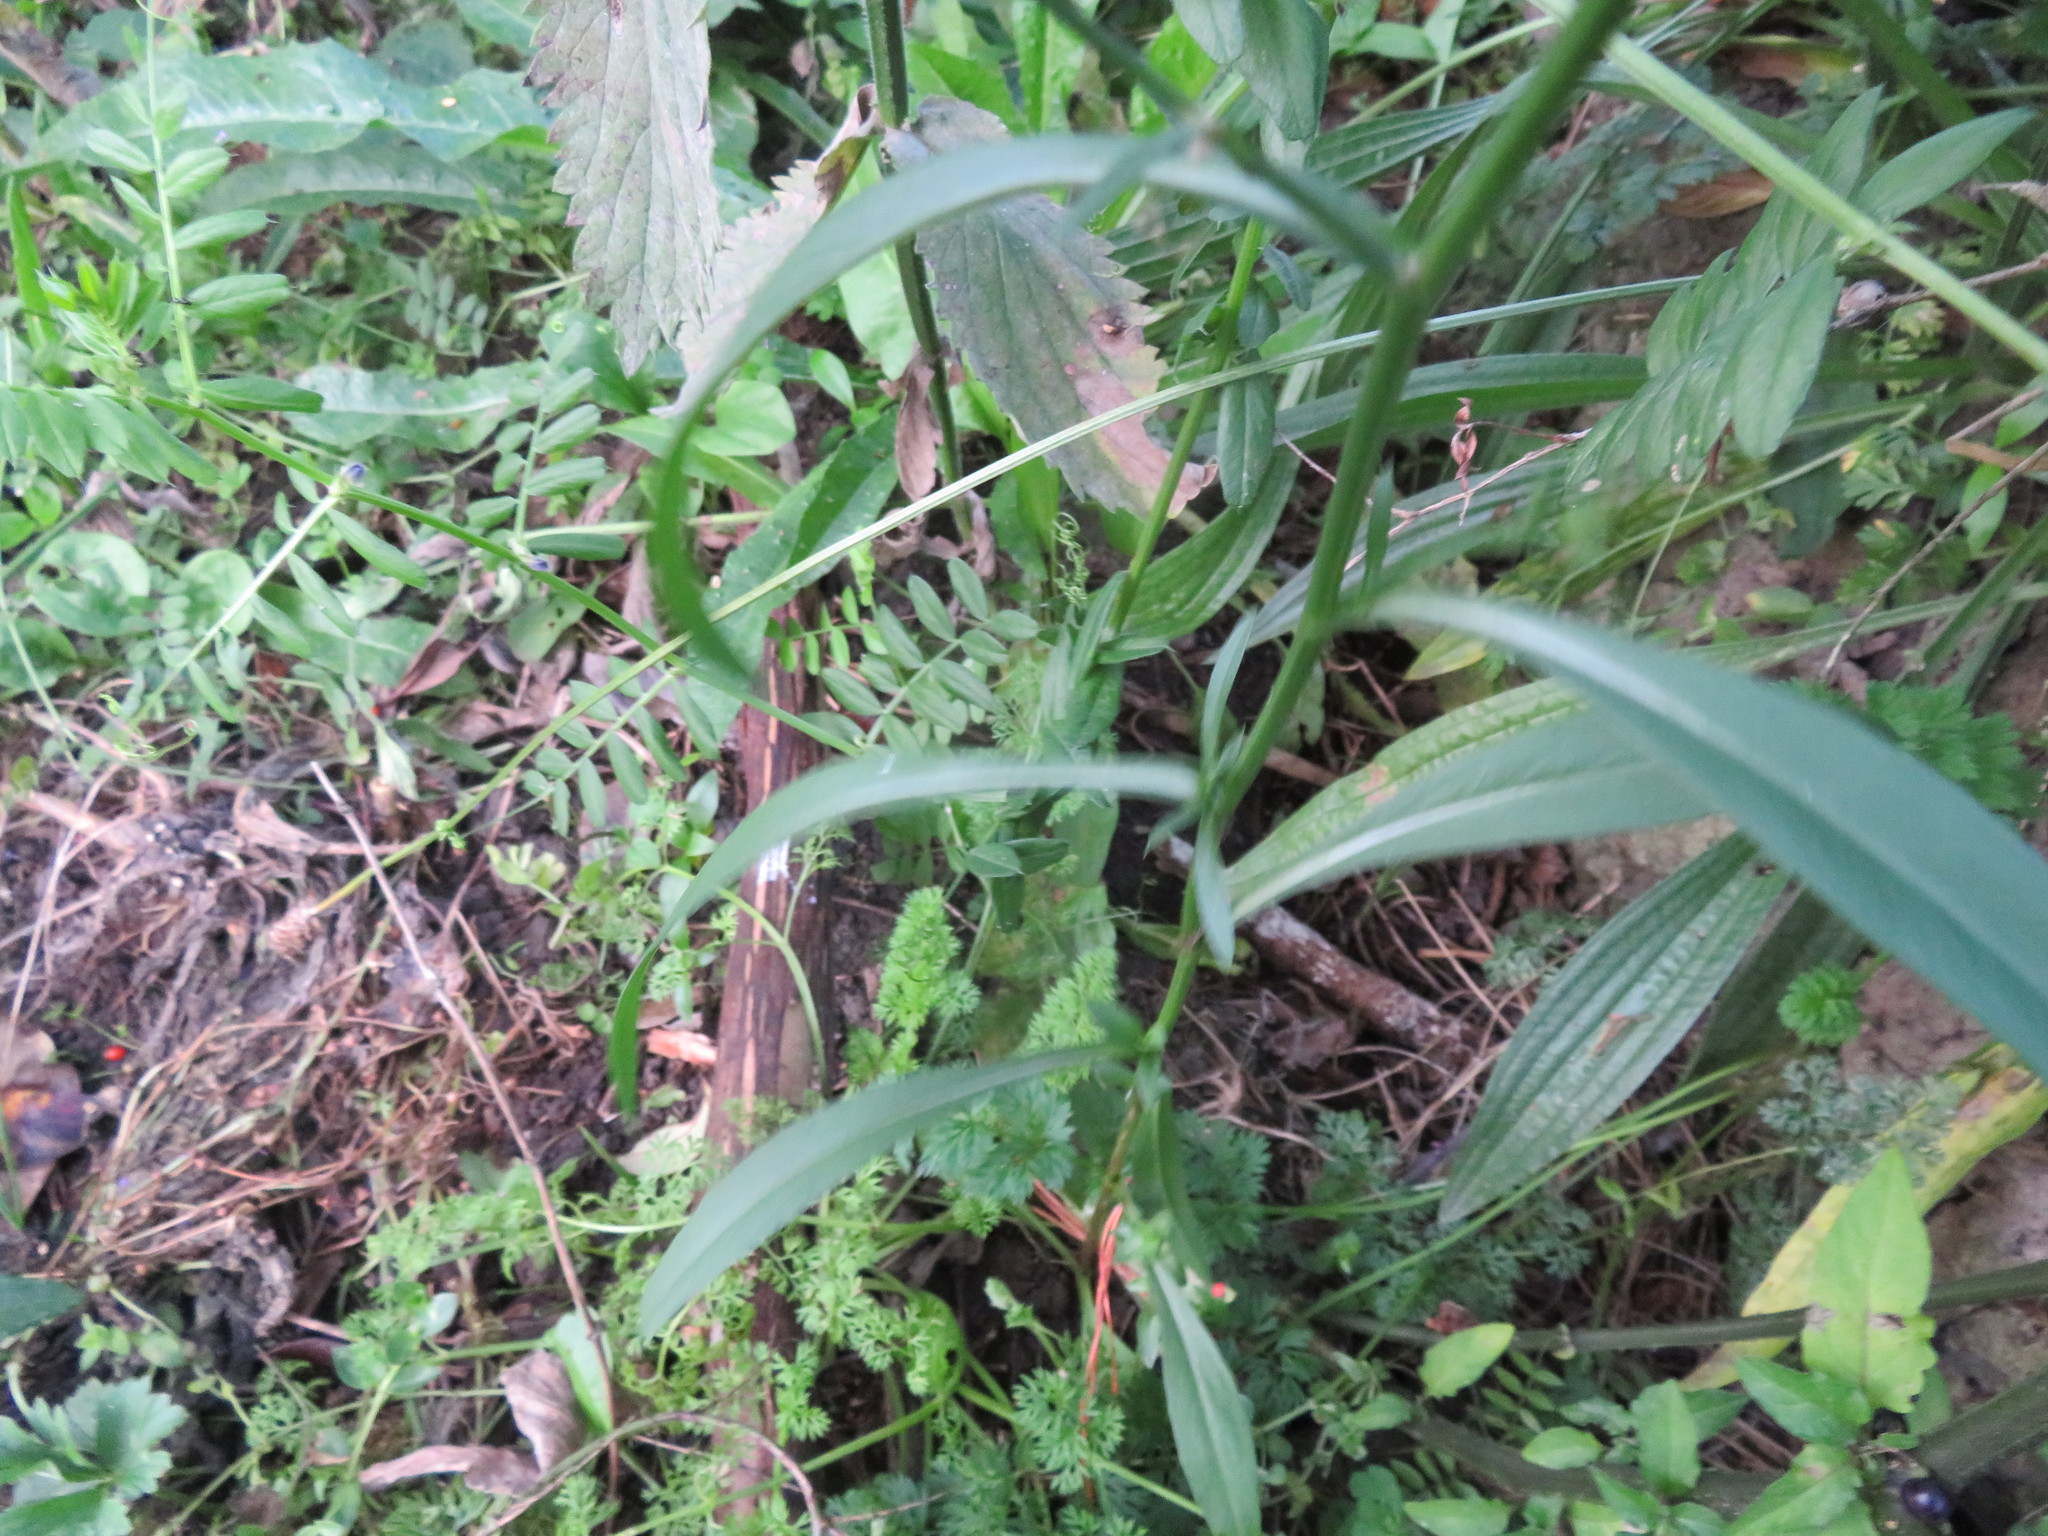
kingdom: Plantae
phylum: Tracheophyta
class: Magnoliopsida
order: Asterales
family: Asteraceae
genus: Symphyotrichum
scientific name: Symphyotrichum subulatum
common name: Annual saltmarsh aster
